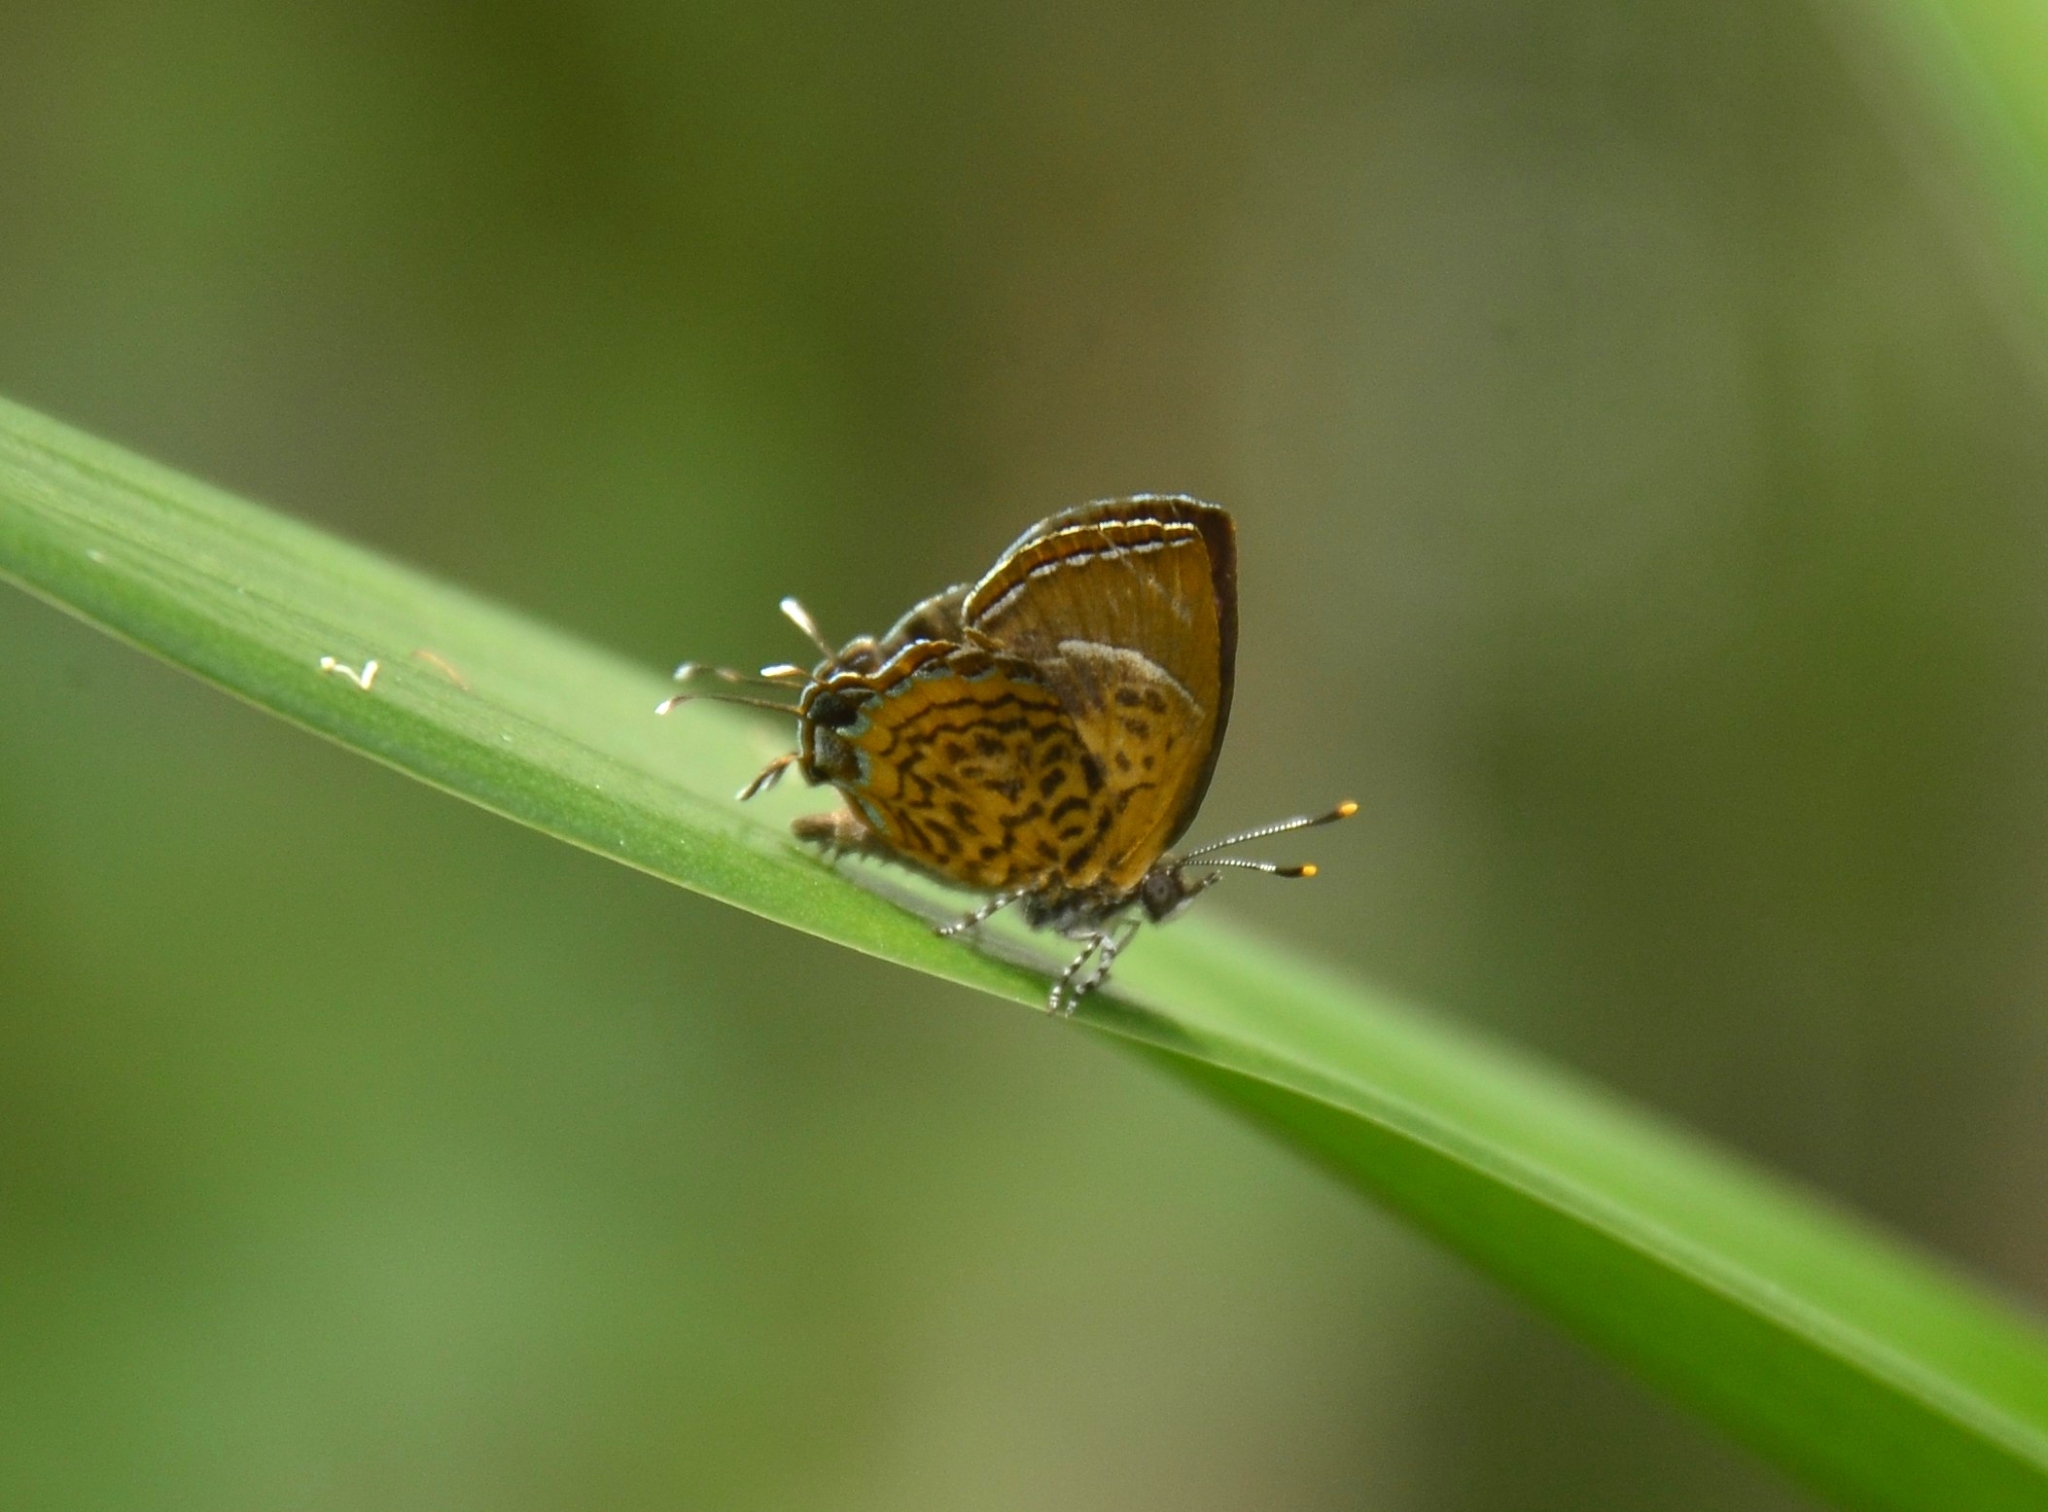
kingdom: Animalia
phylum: Arthropoda
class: Insecta
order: Lepidoptera
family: Lycaenidae
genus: Rathinda
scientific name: Rathinda amor
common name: Monkey puzzle
